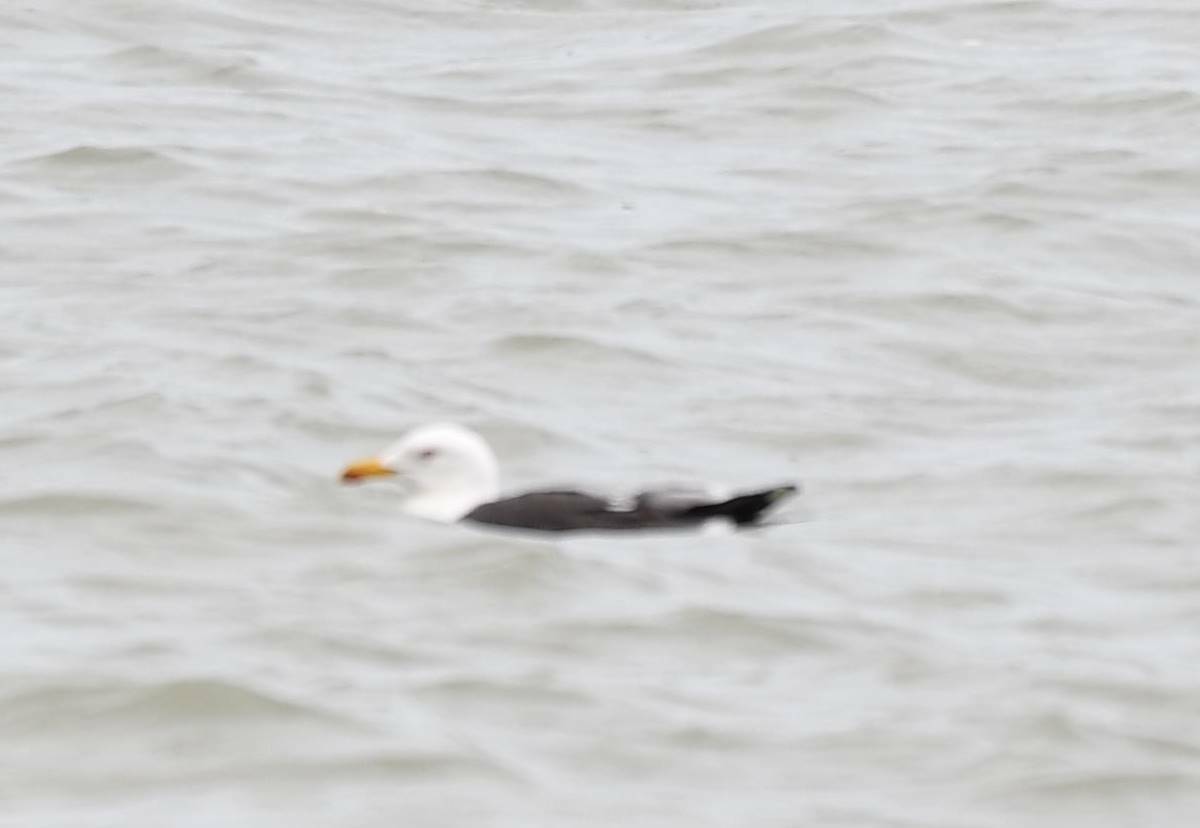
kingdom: Animalia
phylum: Chordata
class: Aves
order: Charadriiformes
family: Laridae
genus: Larus
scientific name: Larus fuscus
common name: Lesser black-backed gull
